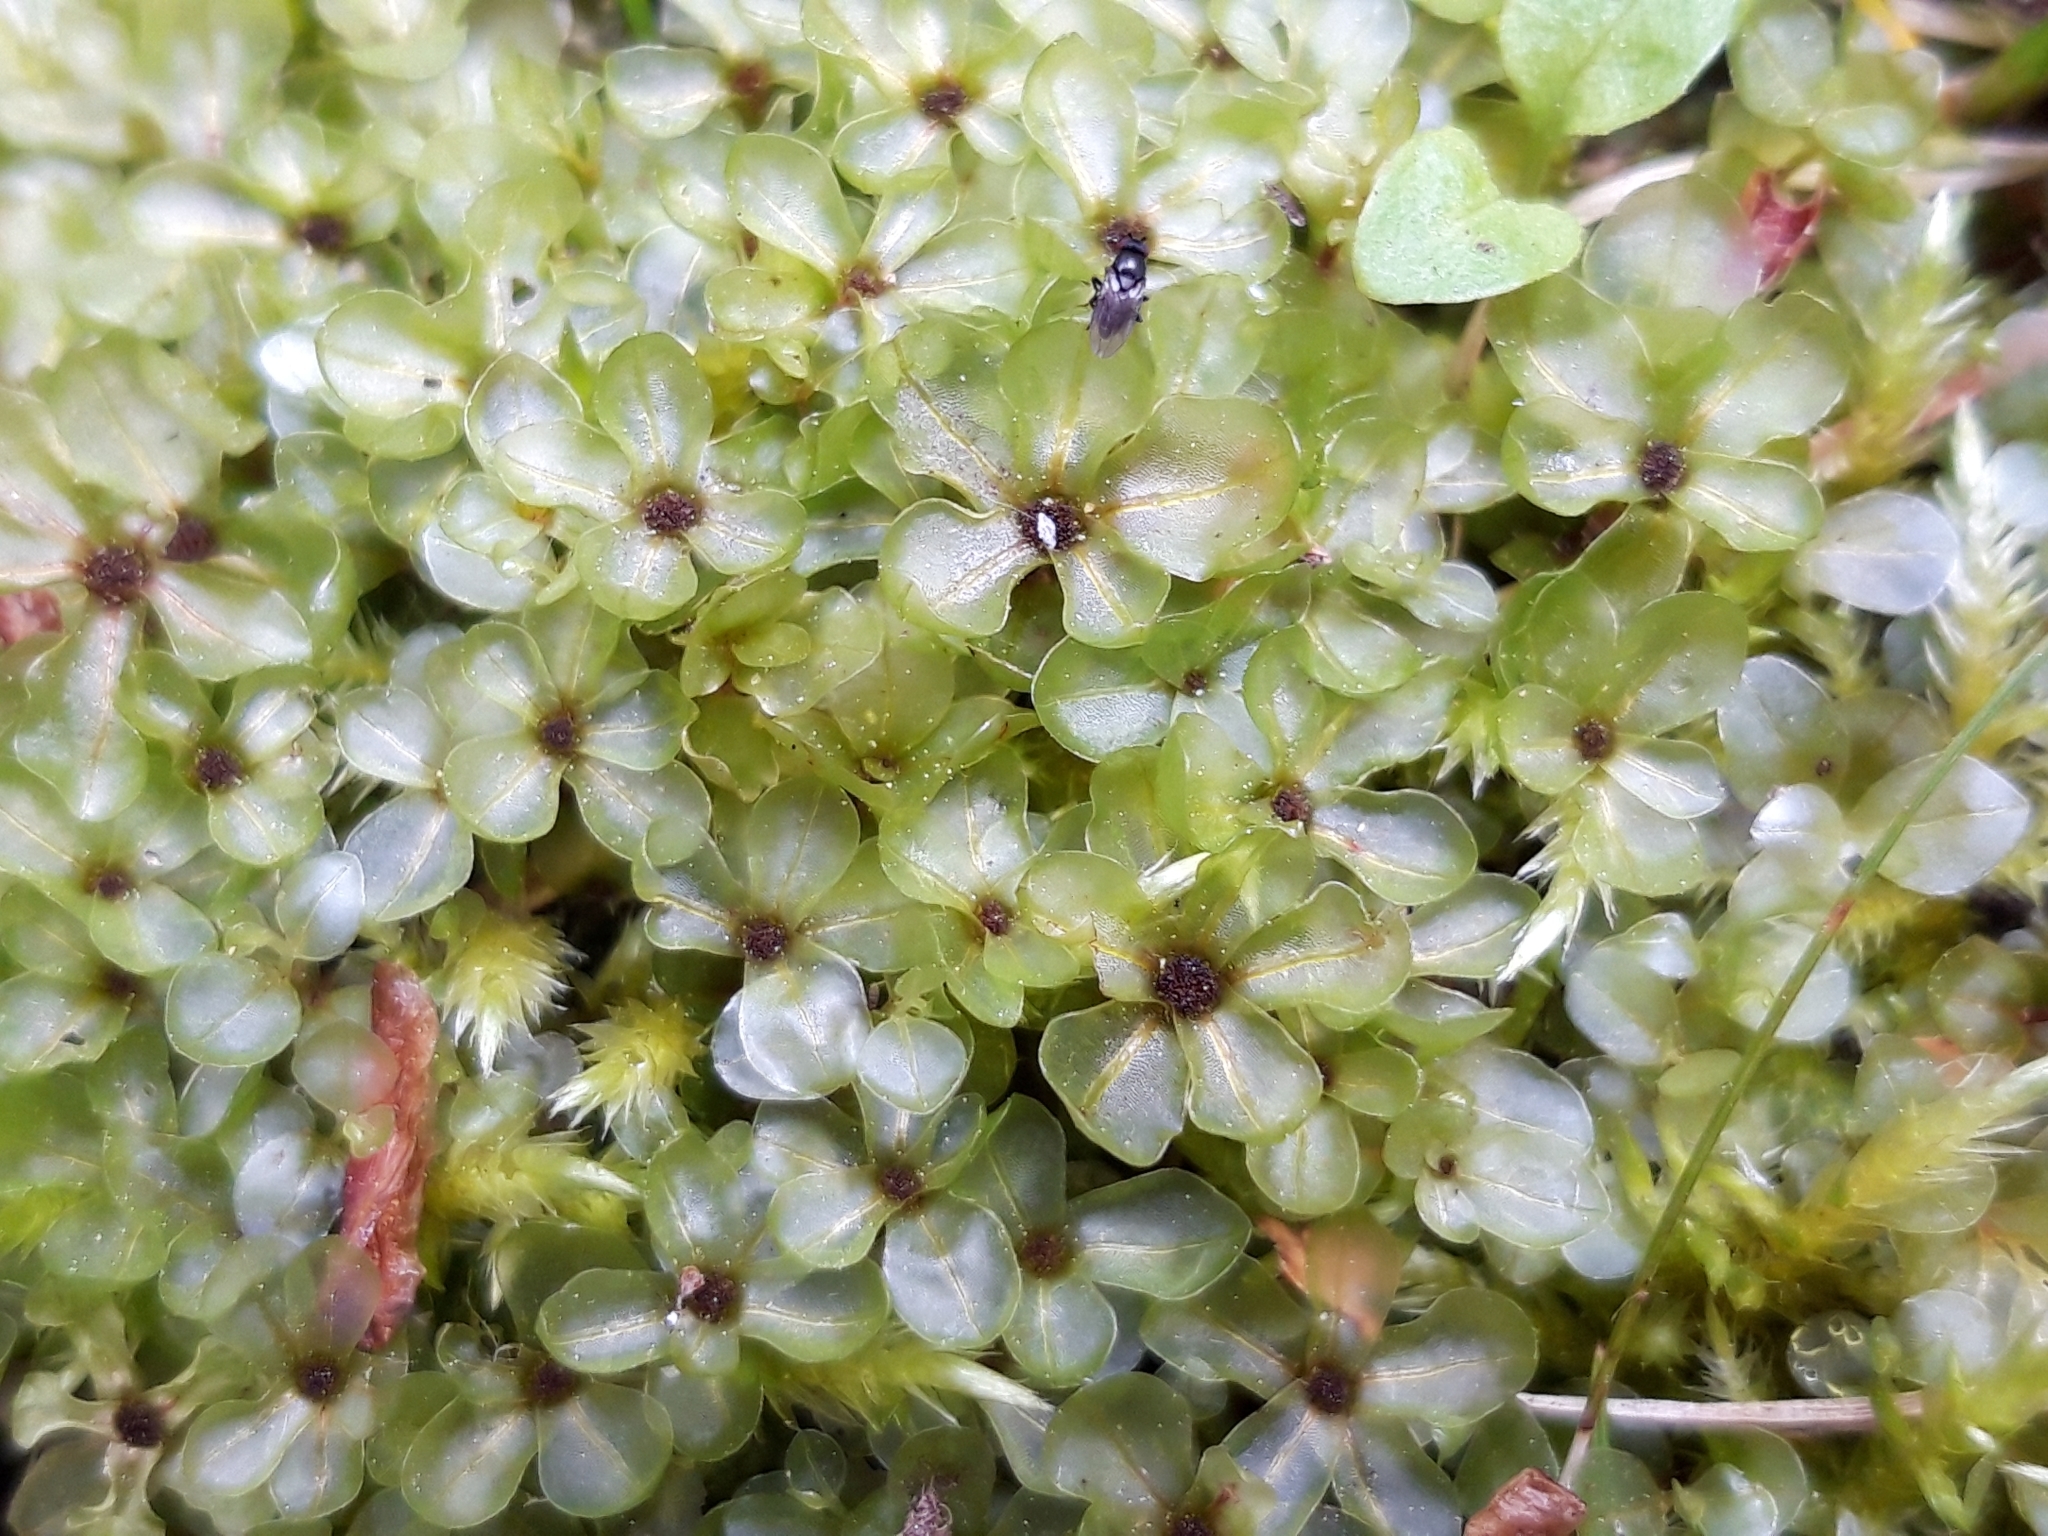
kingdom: Plantae
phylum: Bryophyta
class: Bryopsida
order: Bryales
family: Mniaceae
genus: Rhizomnium
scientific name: Rhizomnium punctatum
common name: Dotted leafy moss
